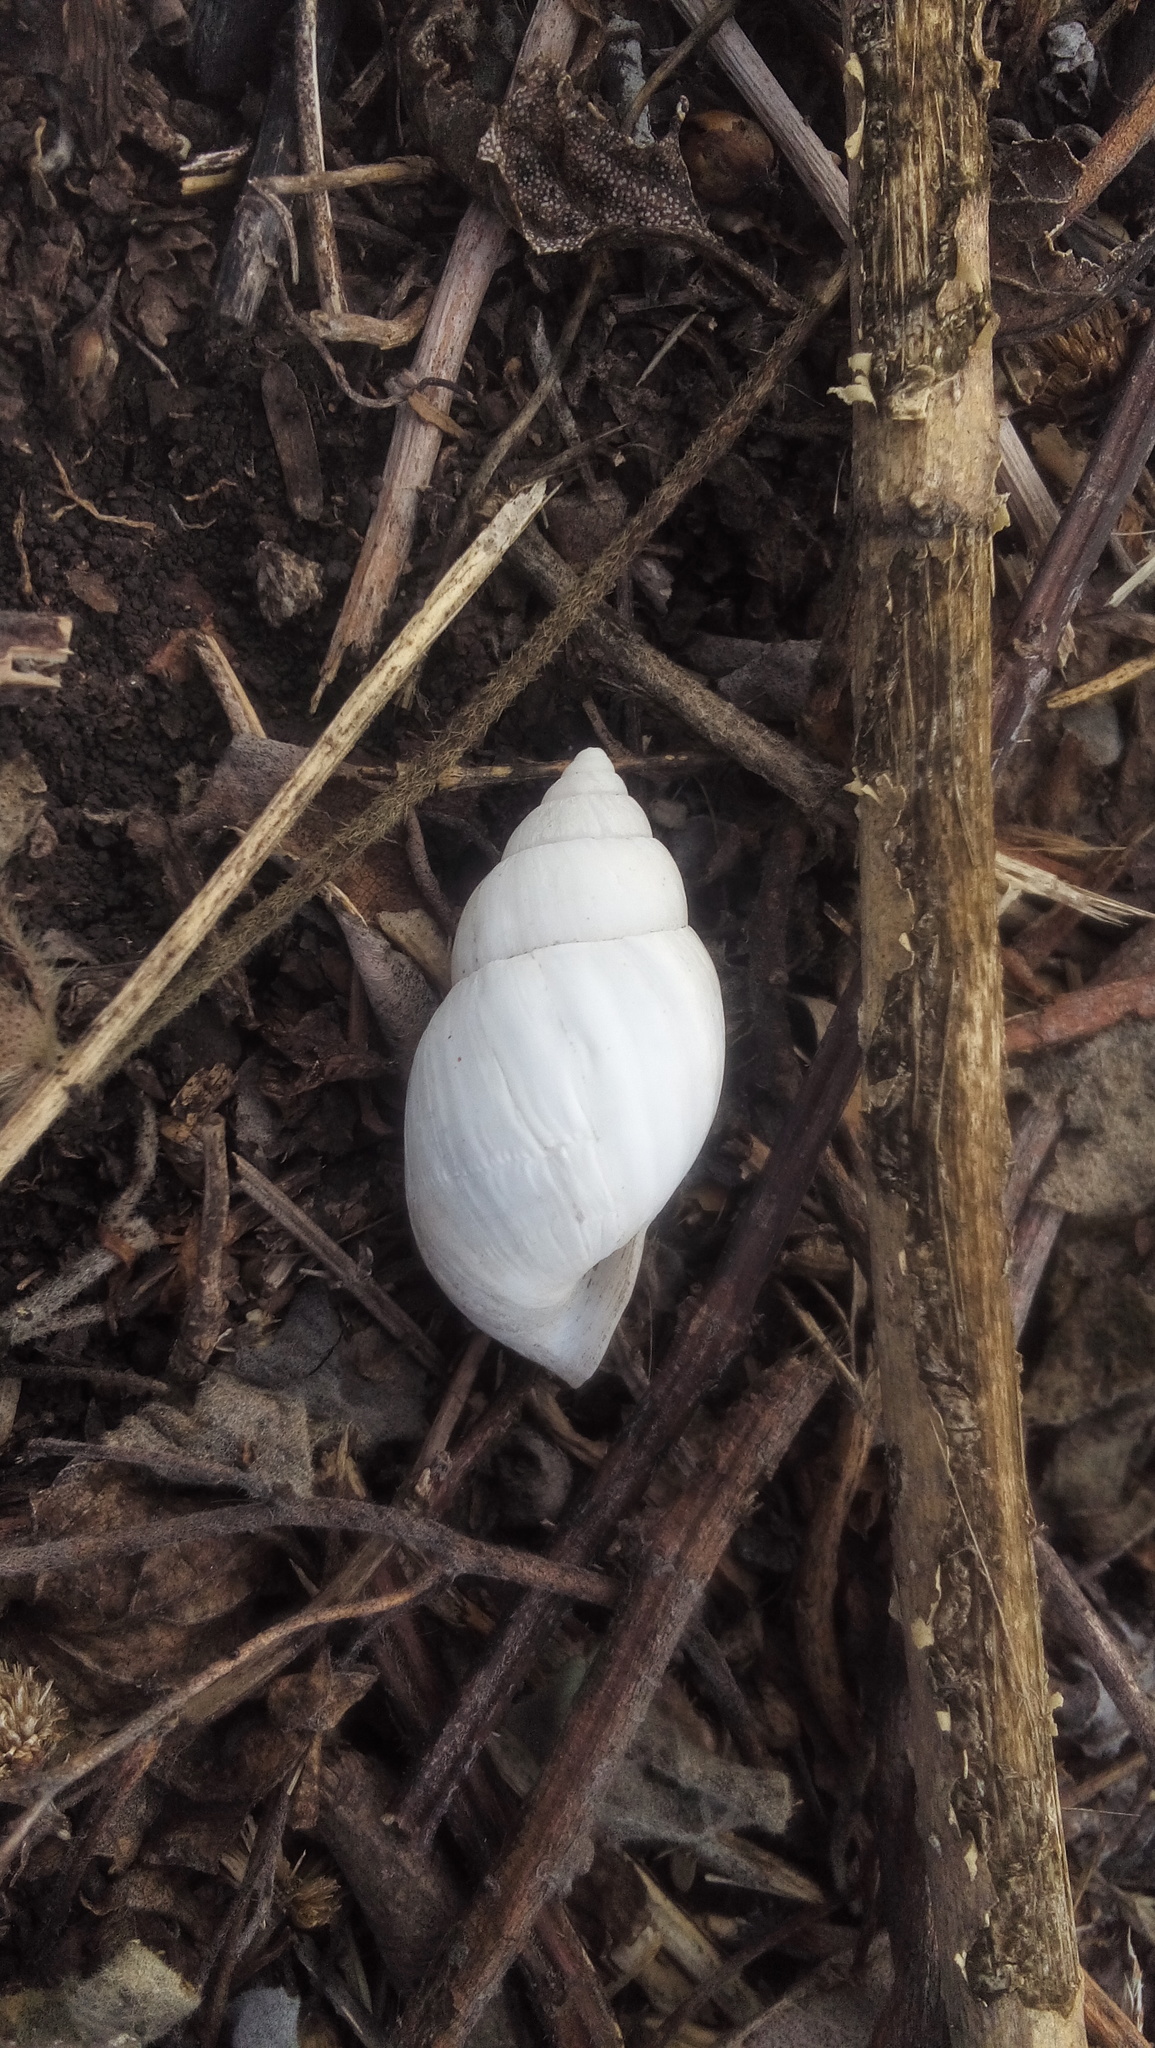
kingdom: Animalia
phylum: Mollusca
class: Gastropoda
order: Stylommatophora
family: Bulimulidae
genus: Rabdotus
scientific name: Rabdotus
